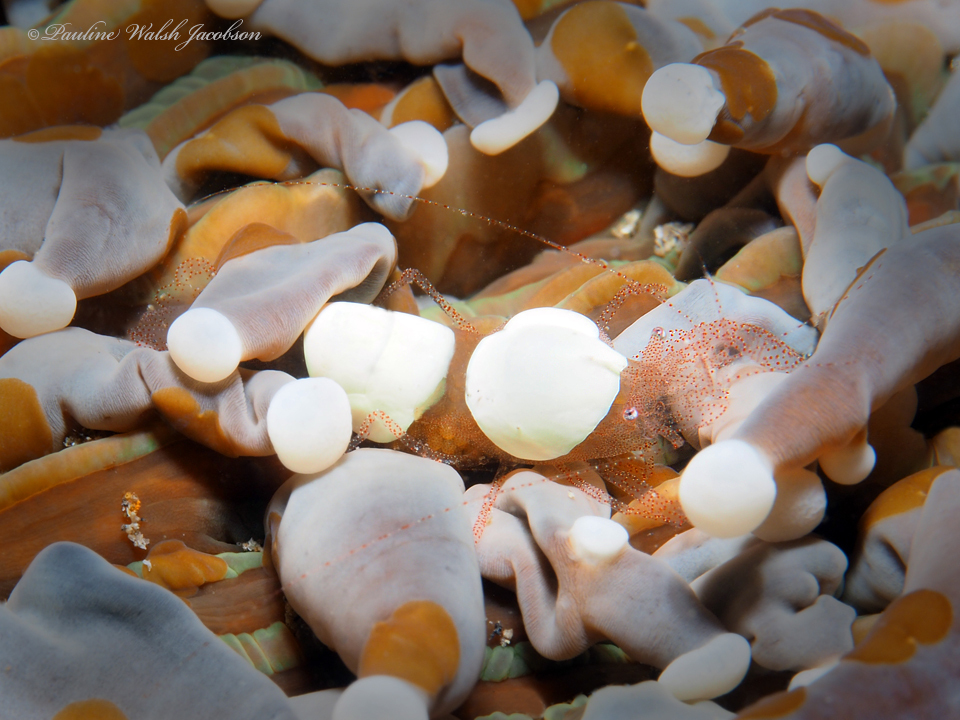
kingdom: Animalia
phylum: Arthropoda
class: Malacostraca
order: Decapoda
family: Palaemonidae
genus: Hamopontonia
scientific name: Hamopontonia fungicola
